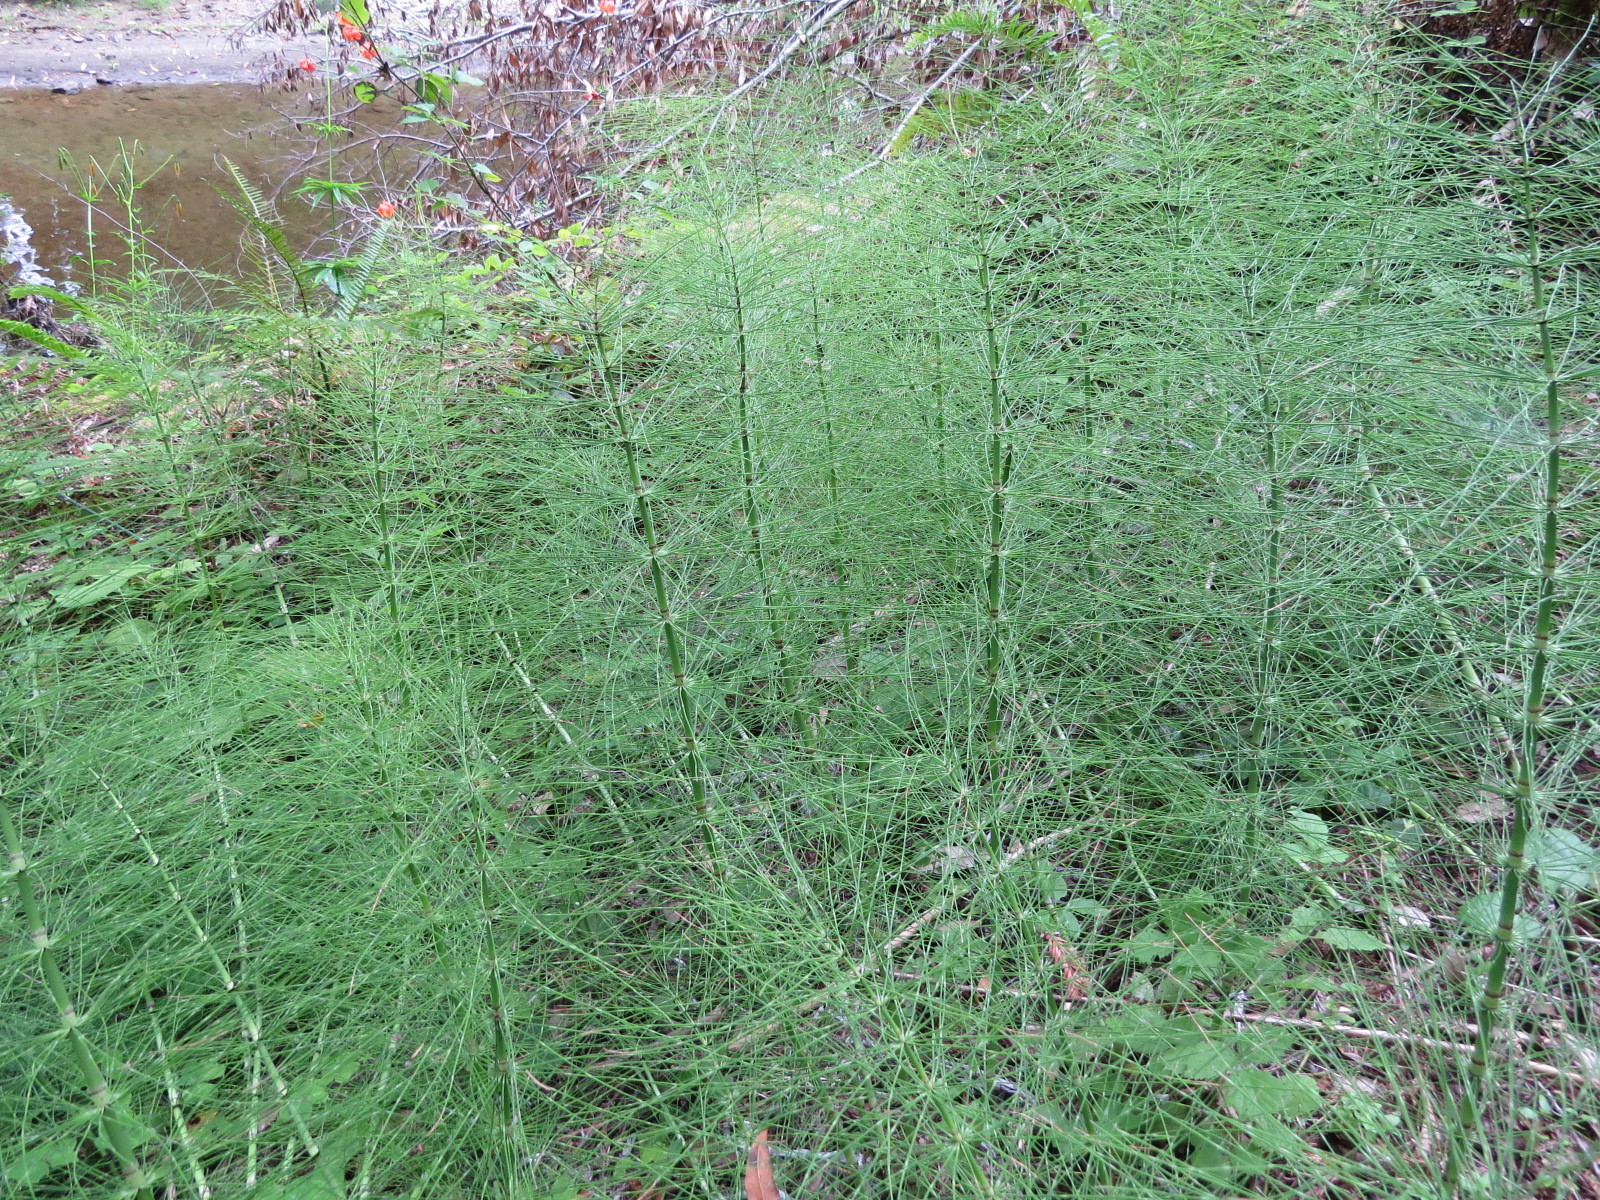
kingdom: Plantae
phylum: Tracheophyta
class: Polypodiopsida
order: Equisetales
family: Equisetaceae
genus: Equisetum
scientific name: Equisetum telmateia
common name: Great horsetail
